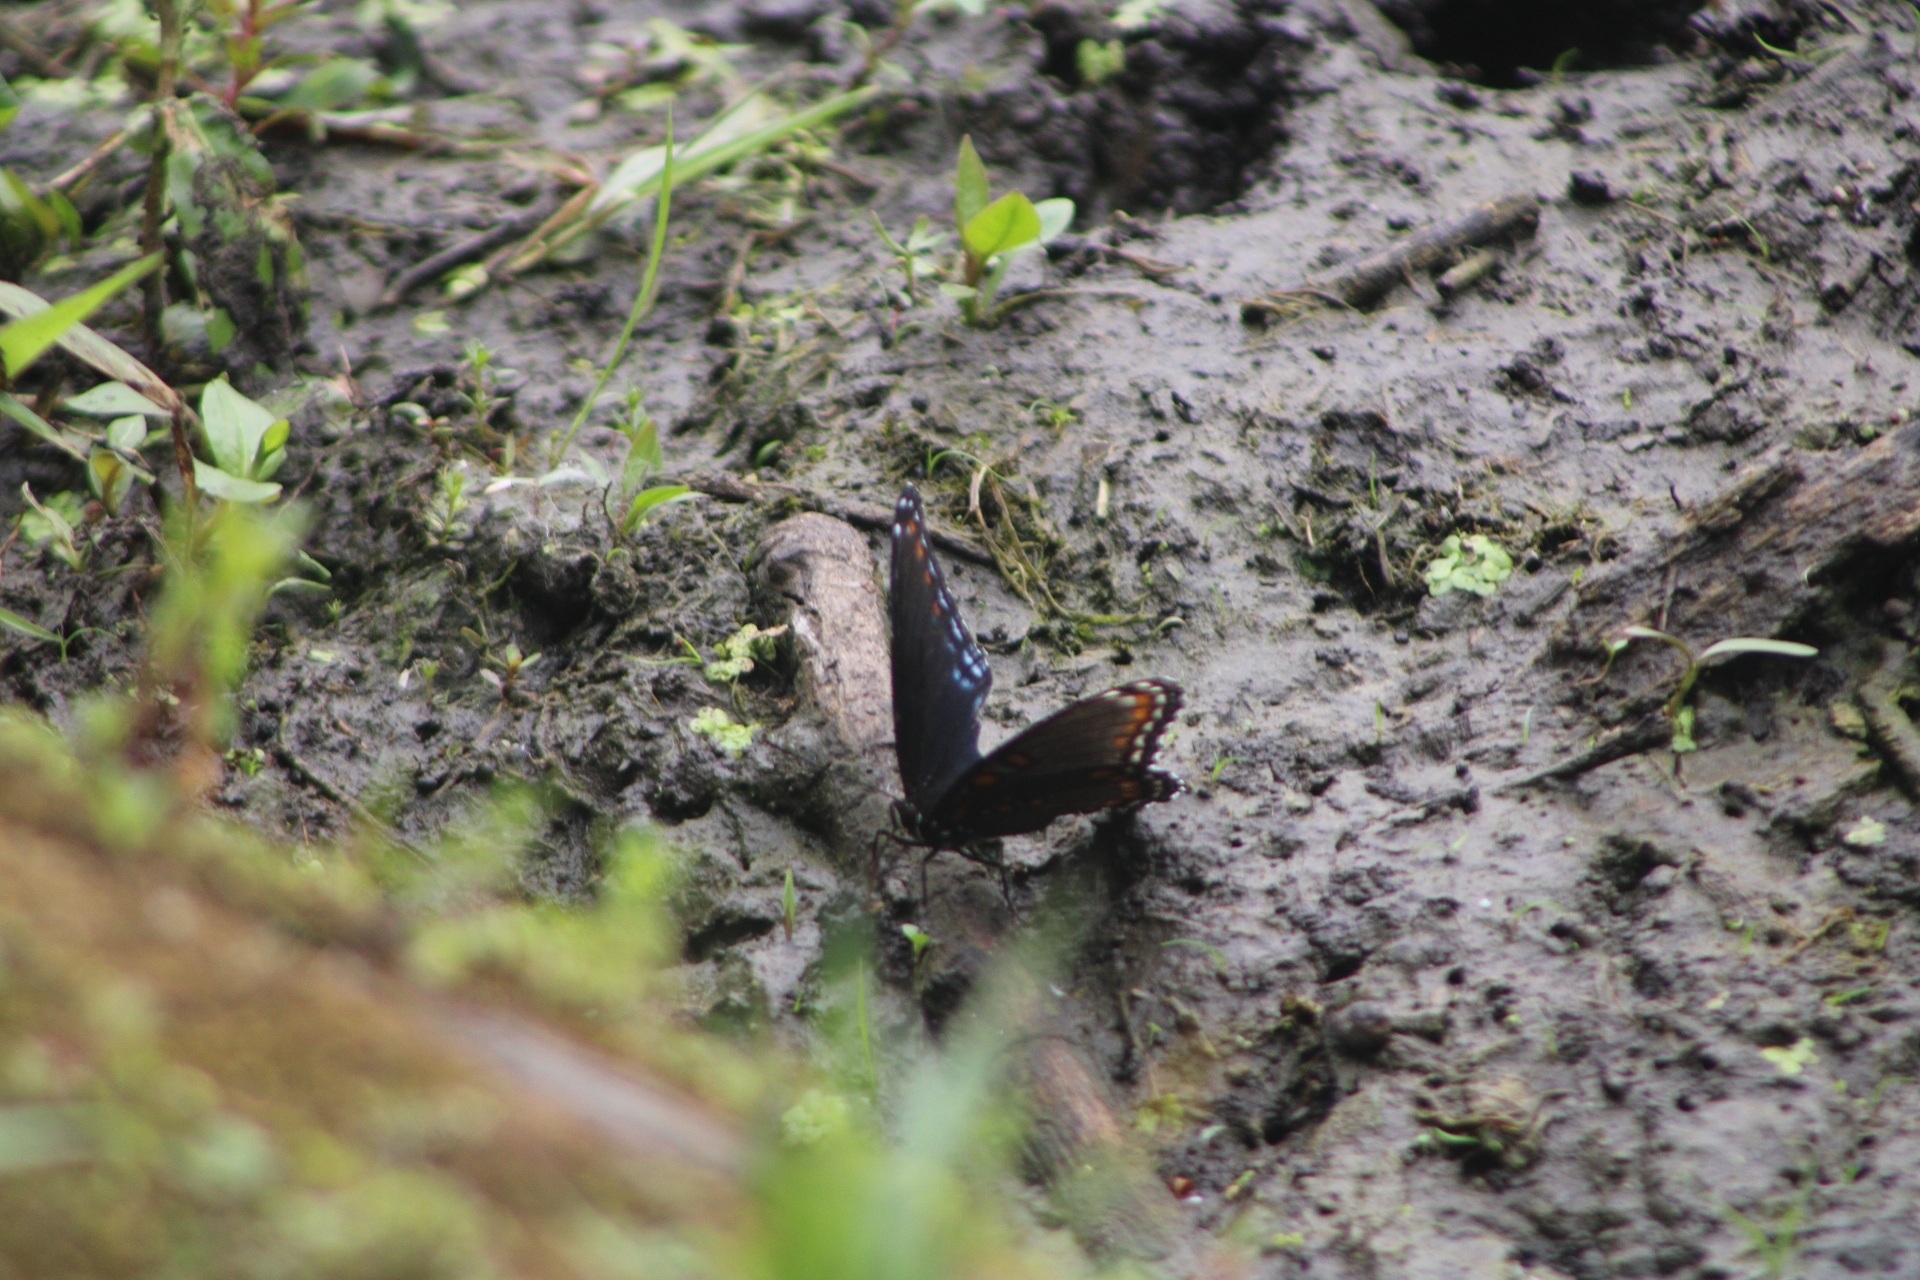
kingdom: Animalia
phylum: Arthropoda
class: Insecta
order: Lepidoptera
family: Nymphalidae
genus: Limenitis
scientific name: Limenitis astyanax
